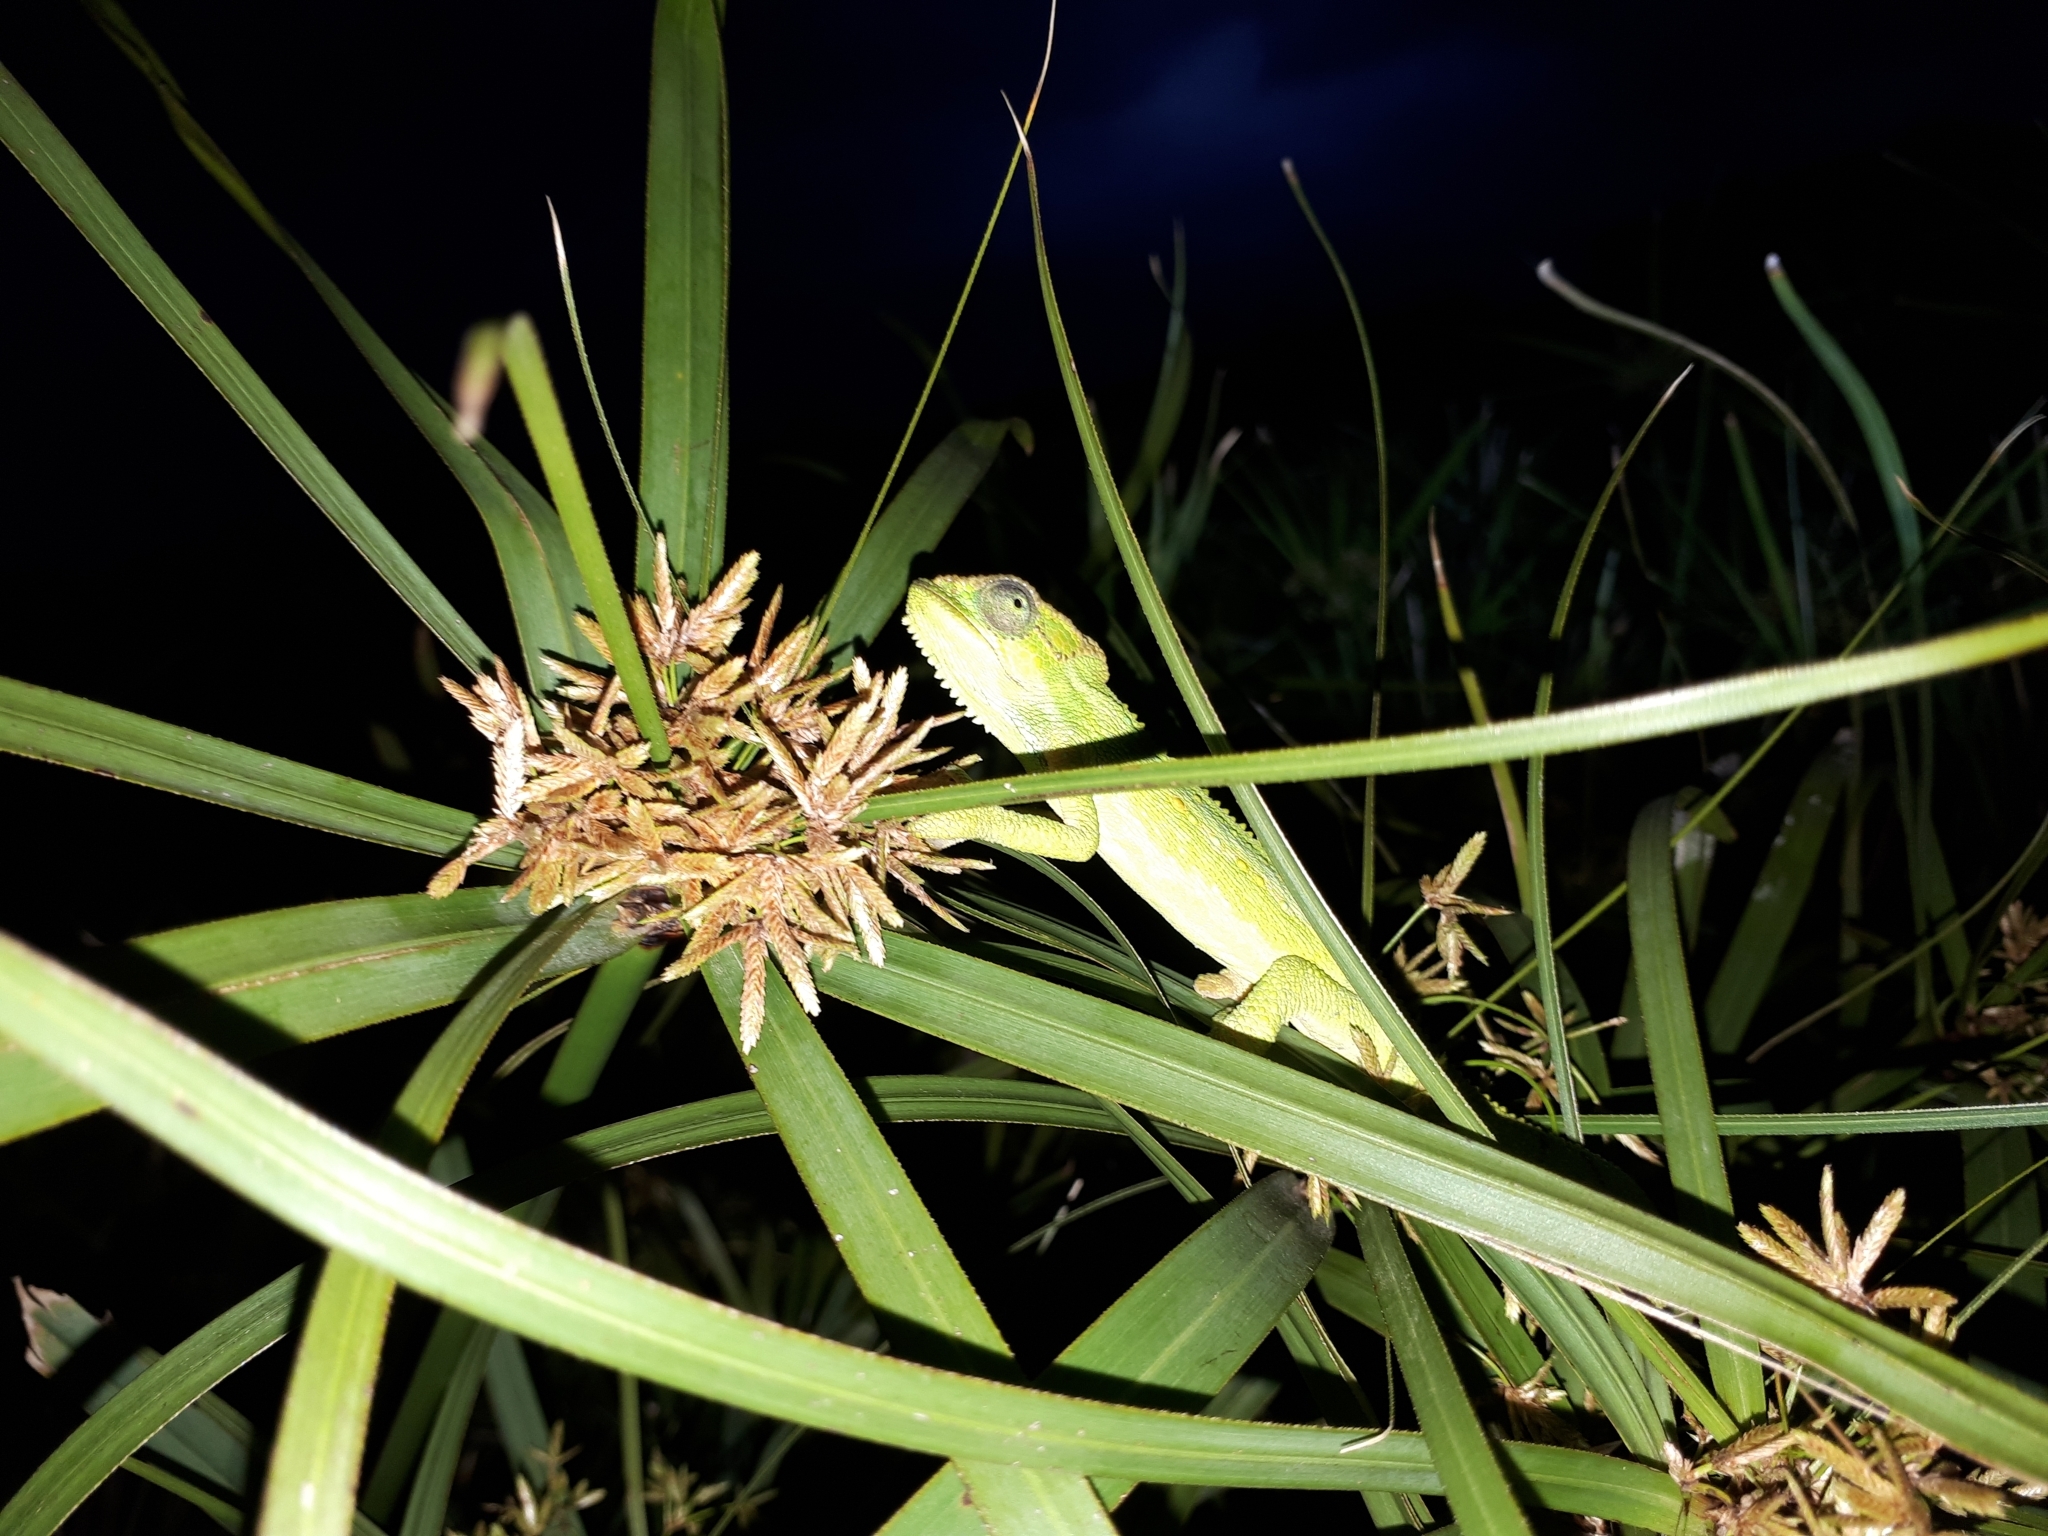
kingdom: Animalia
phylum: Chordata
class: Squamata
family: Chamaeleonidae
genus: Bradypodion
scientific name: Bradypodion pumilum
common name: Cape dwarf chameleon
